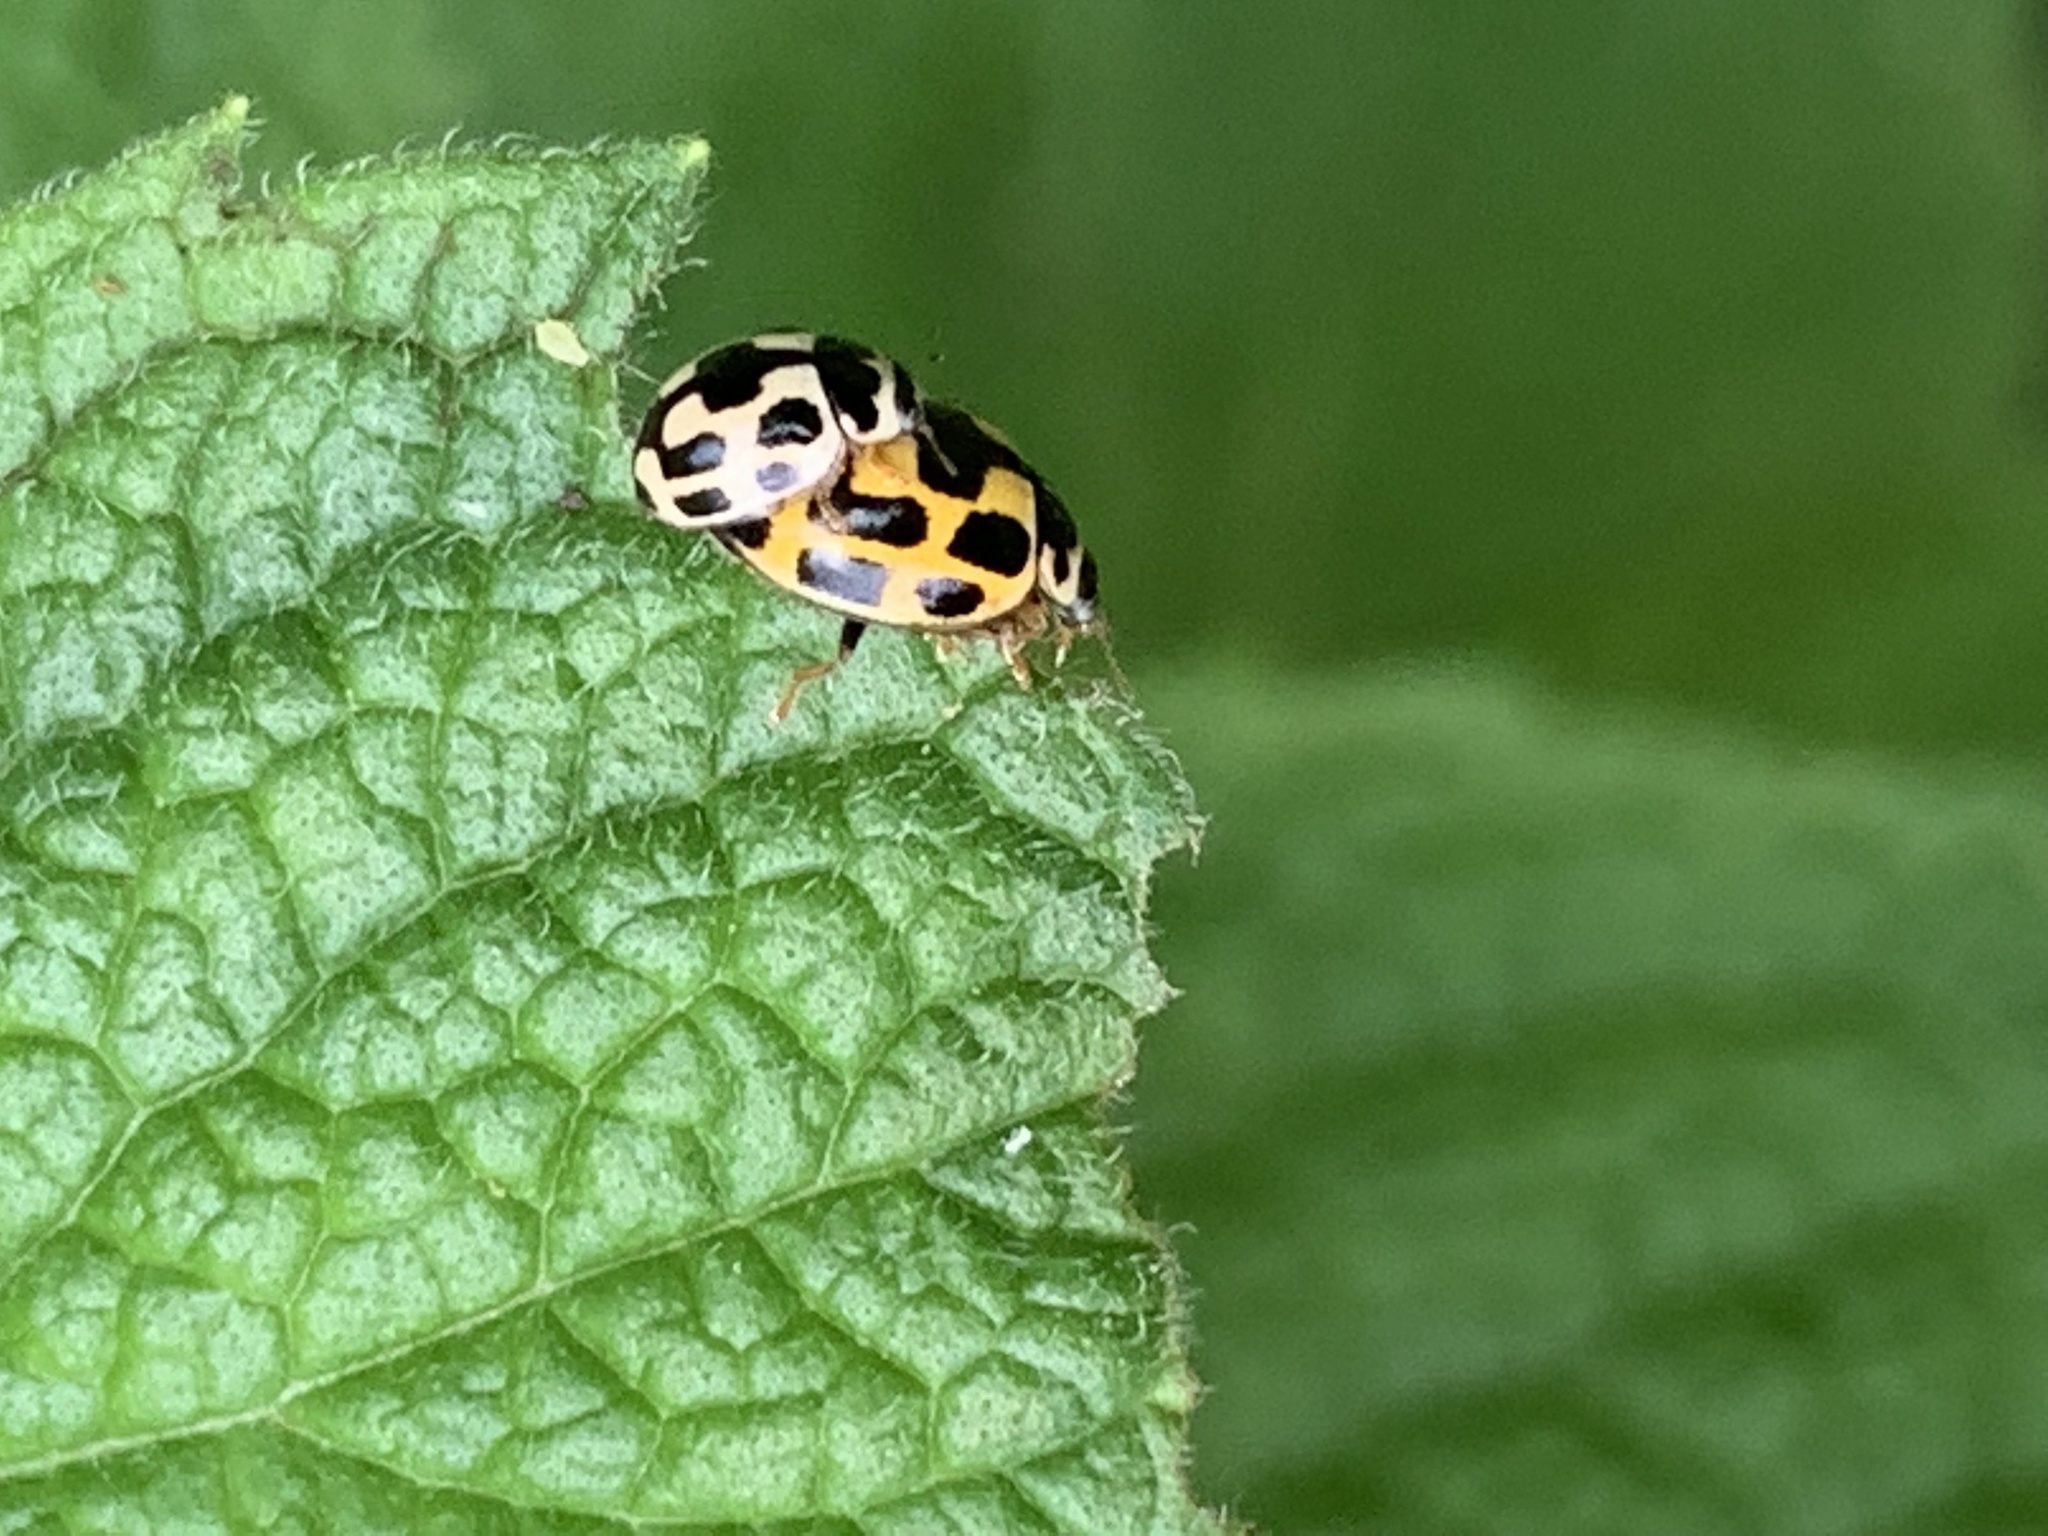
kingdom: Animalia
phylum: Arthropoda
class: Insecta
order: Coleoptera
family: Coccinellidae
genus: Propylaea
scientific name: Propylaea quatuordecimpunctata
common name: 14-spotted ladybird beetle
